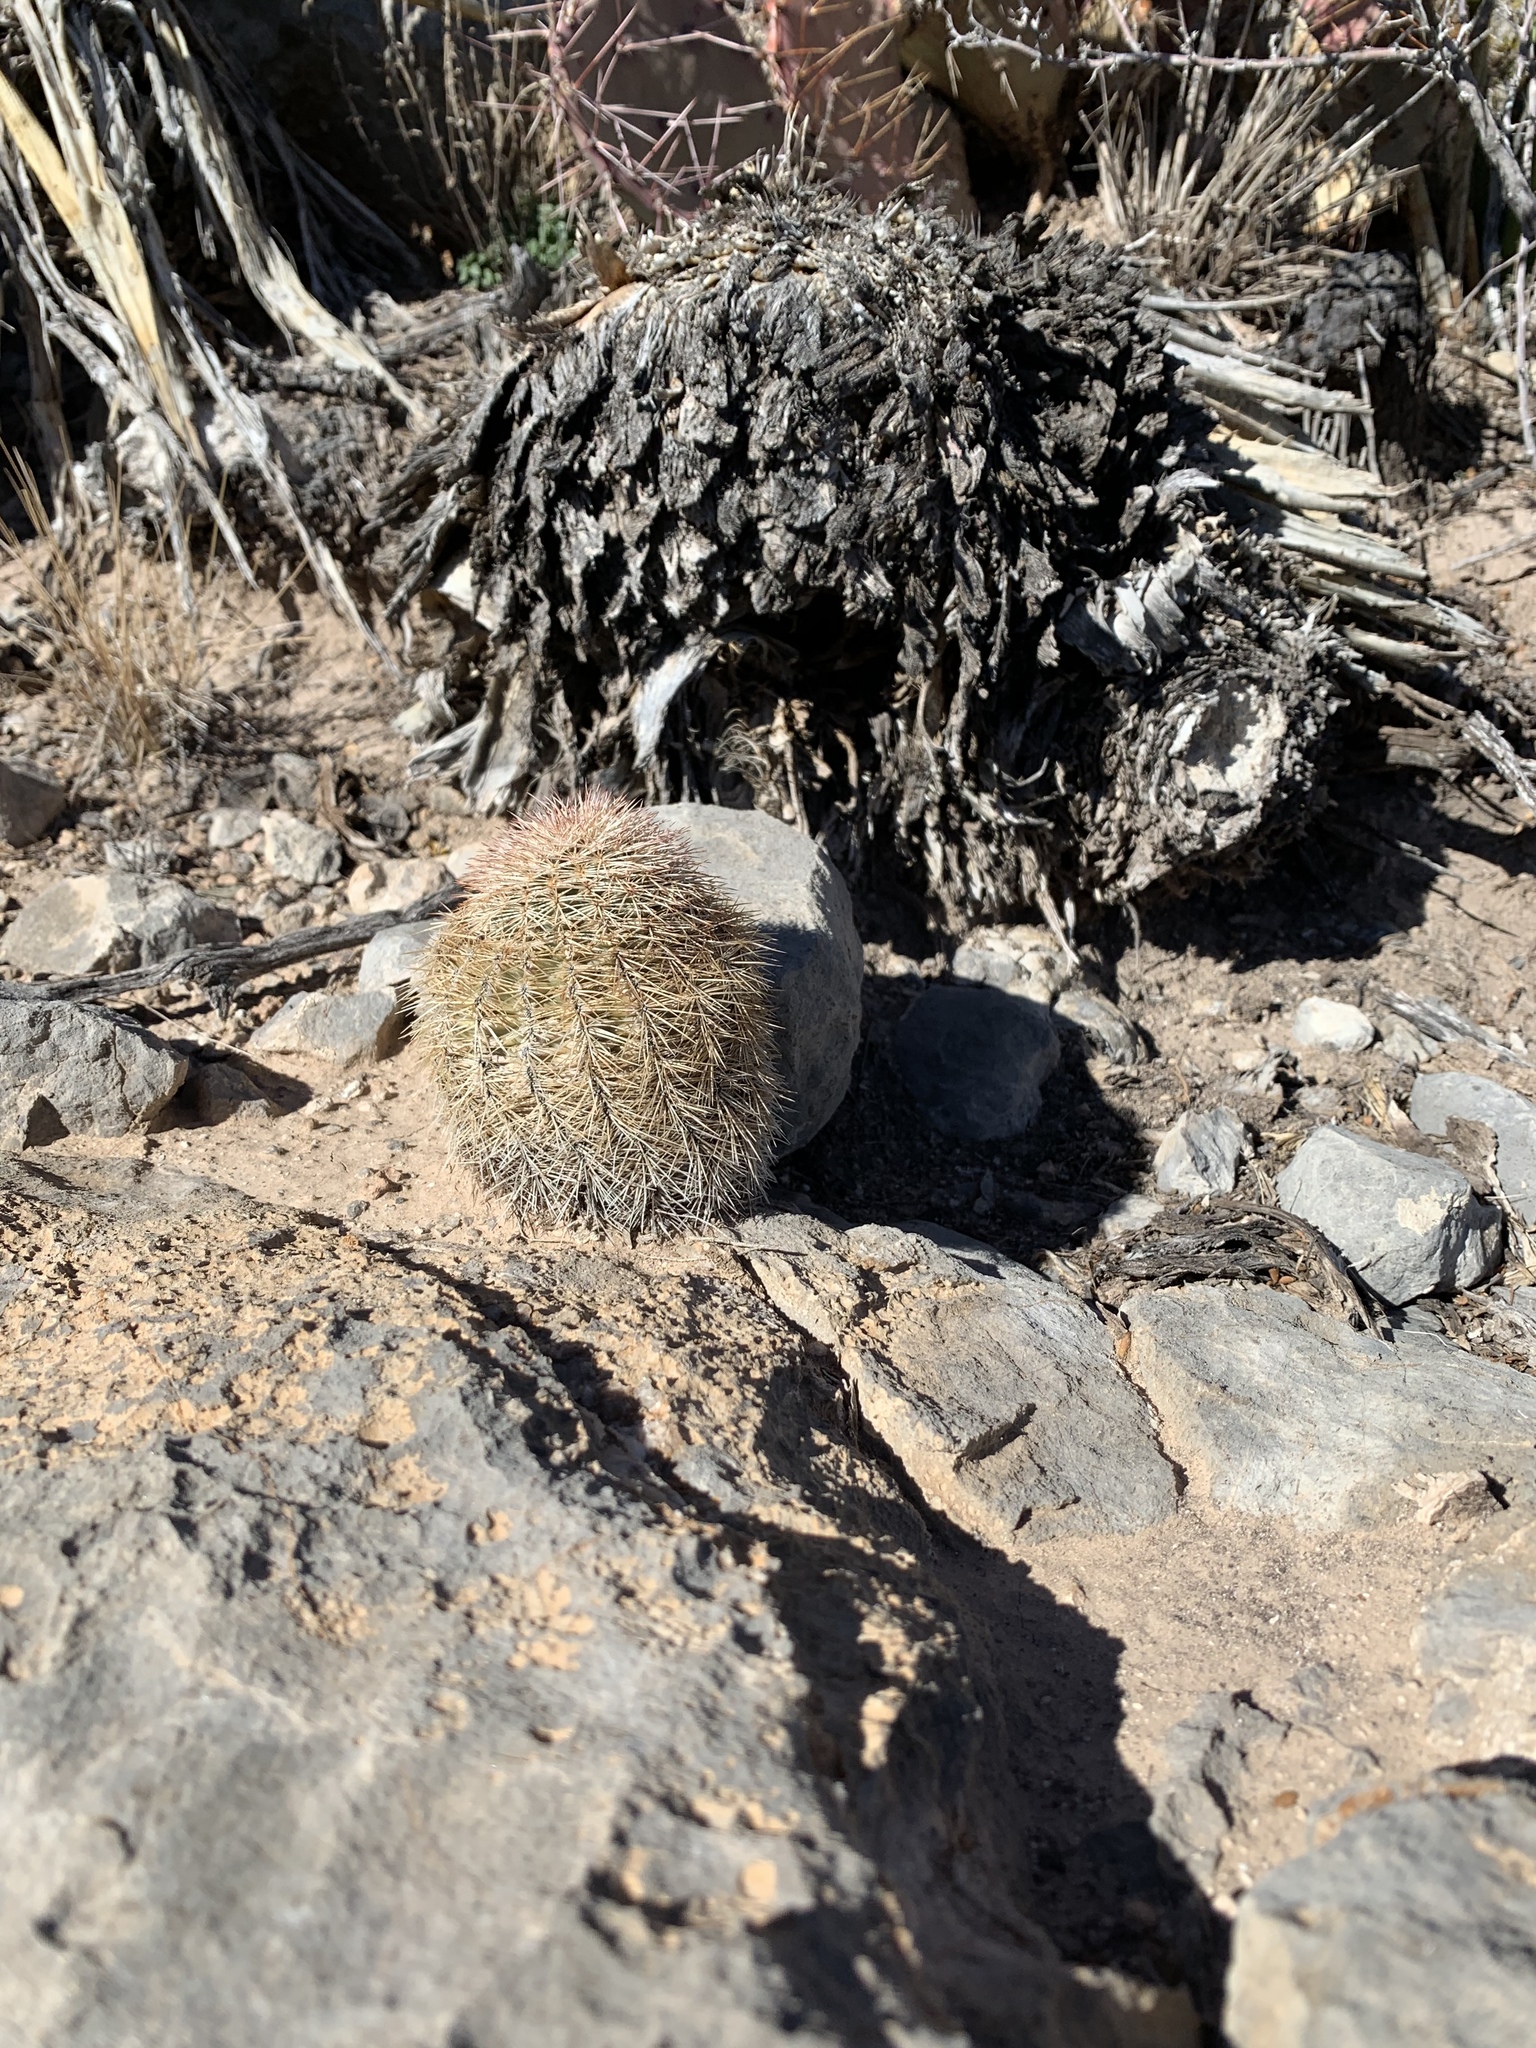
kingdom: Plantae
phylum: Tracheophyta
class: Magnoliopsida
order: Caryophyllales
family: Cactaceae
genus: Echinocereus
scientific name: Echinocereus dasyacanthus
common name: Spiny hedgehog cactus
